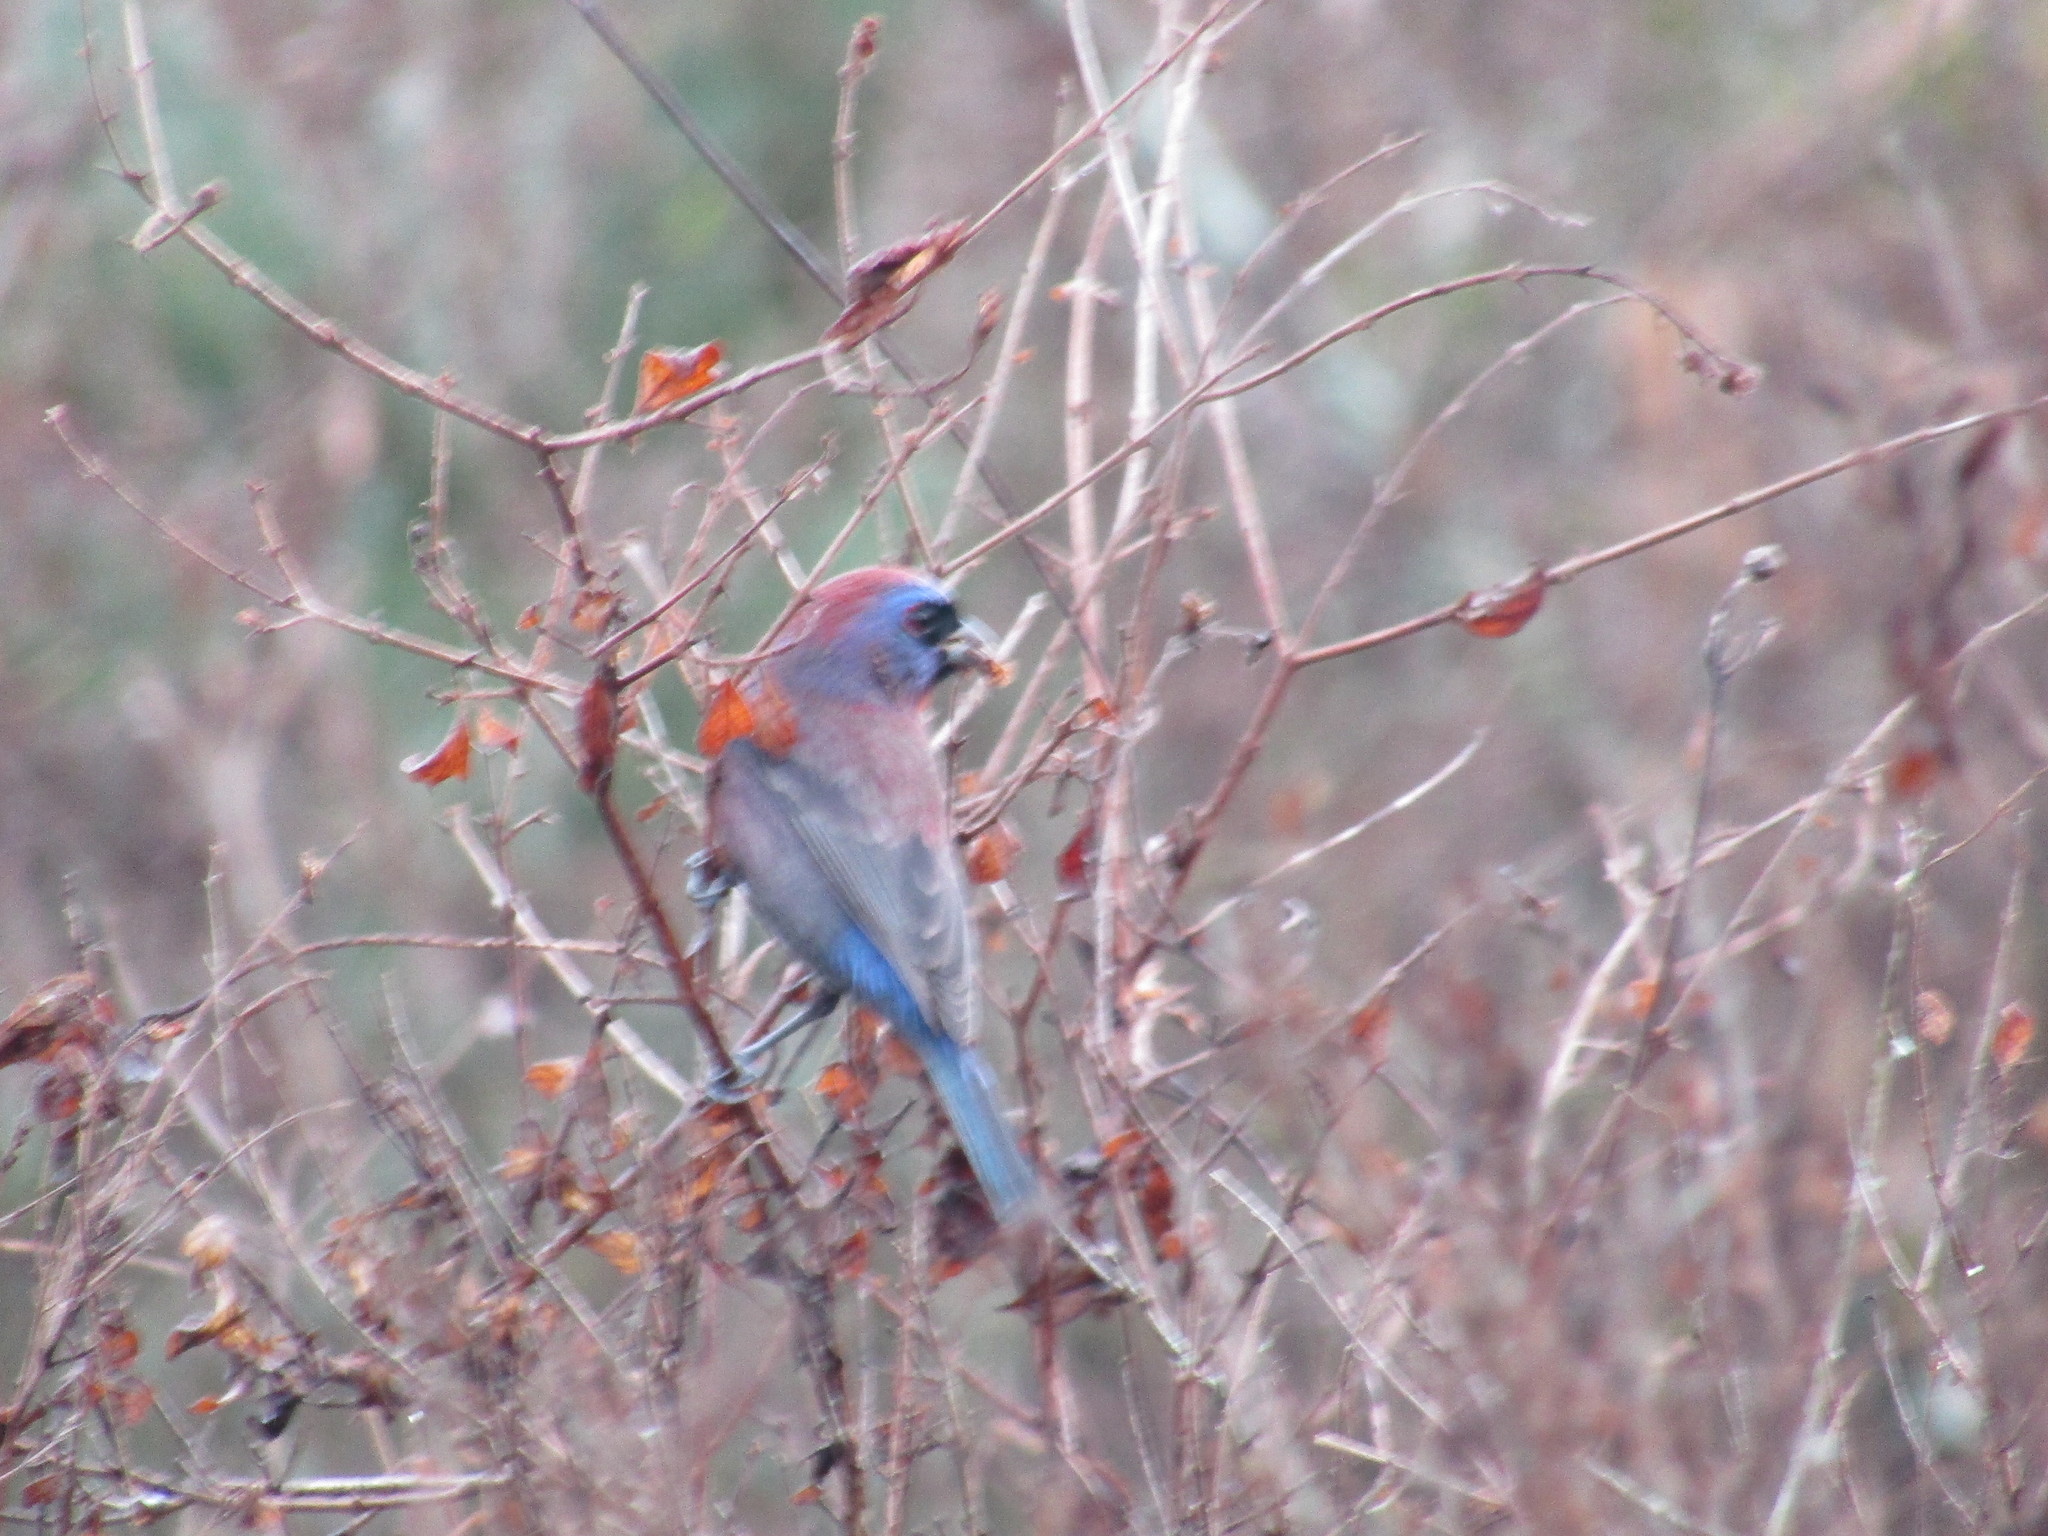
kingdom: Animalia
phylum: Chordata
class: Aves
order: Passeriformes
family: Cardinalidae
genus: Passerina
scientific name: Passerina versicolor
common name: Varied bunting
